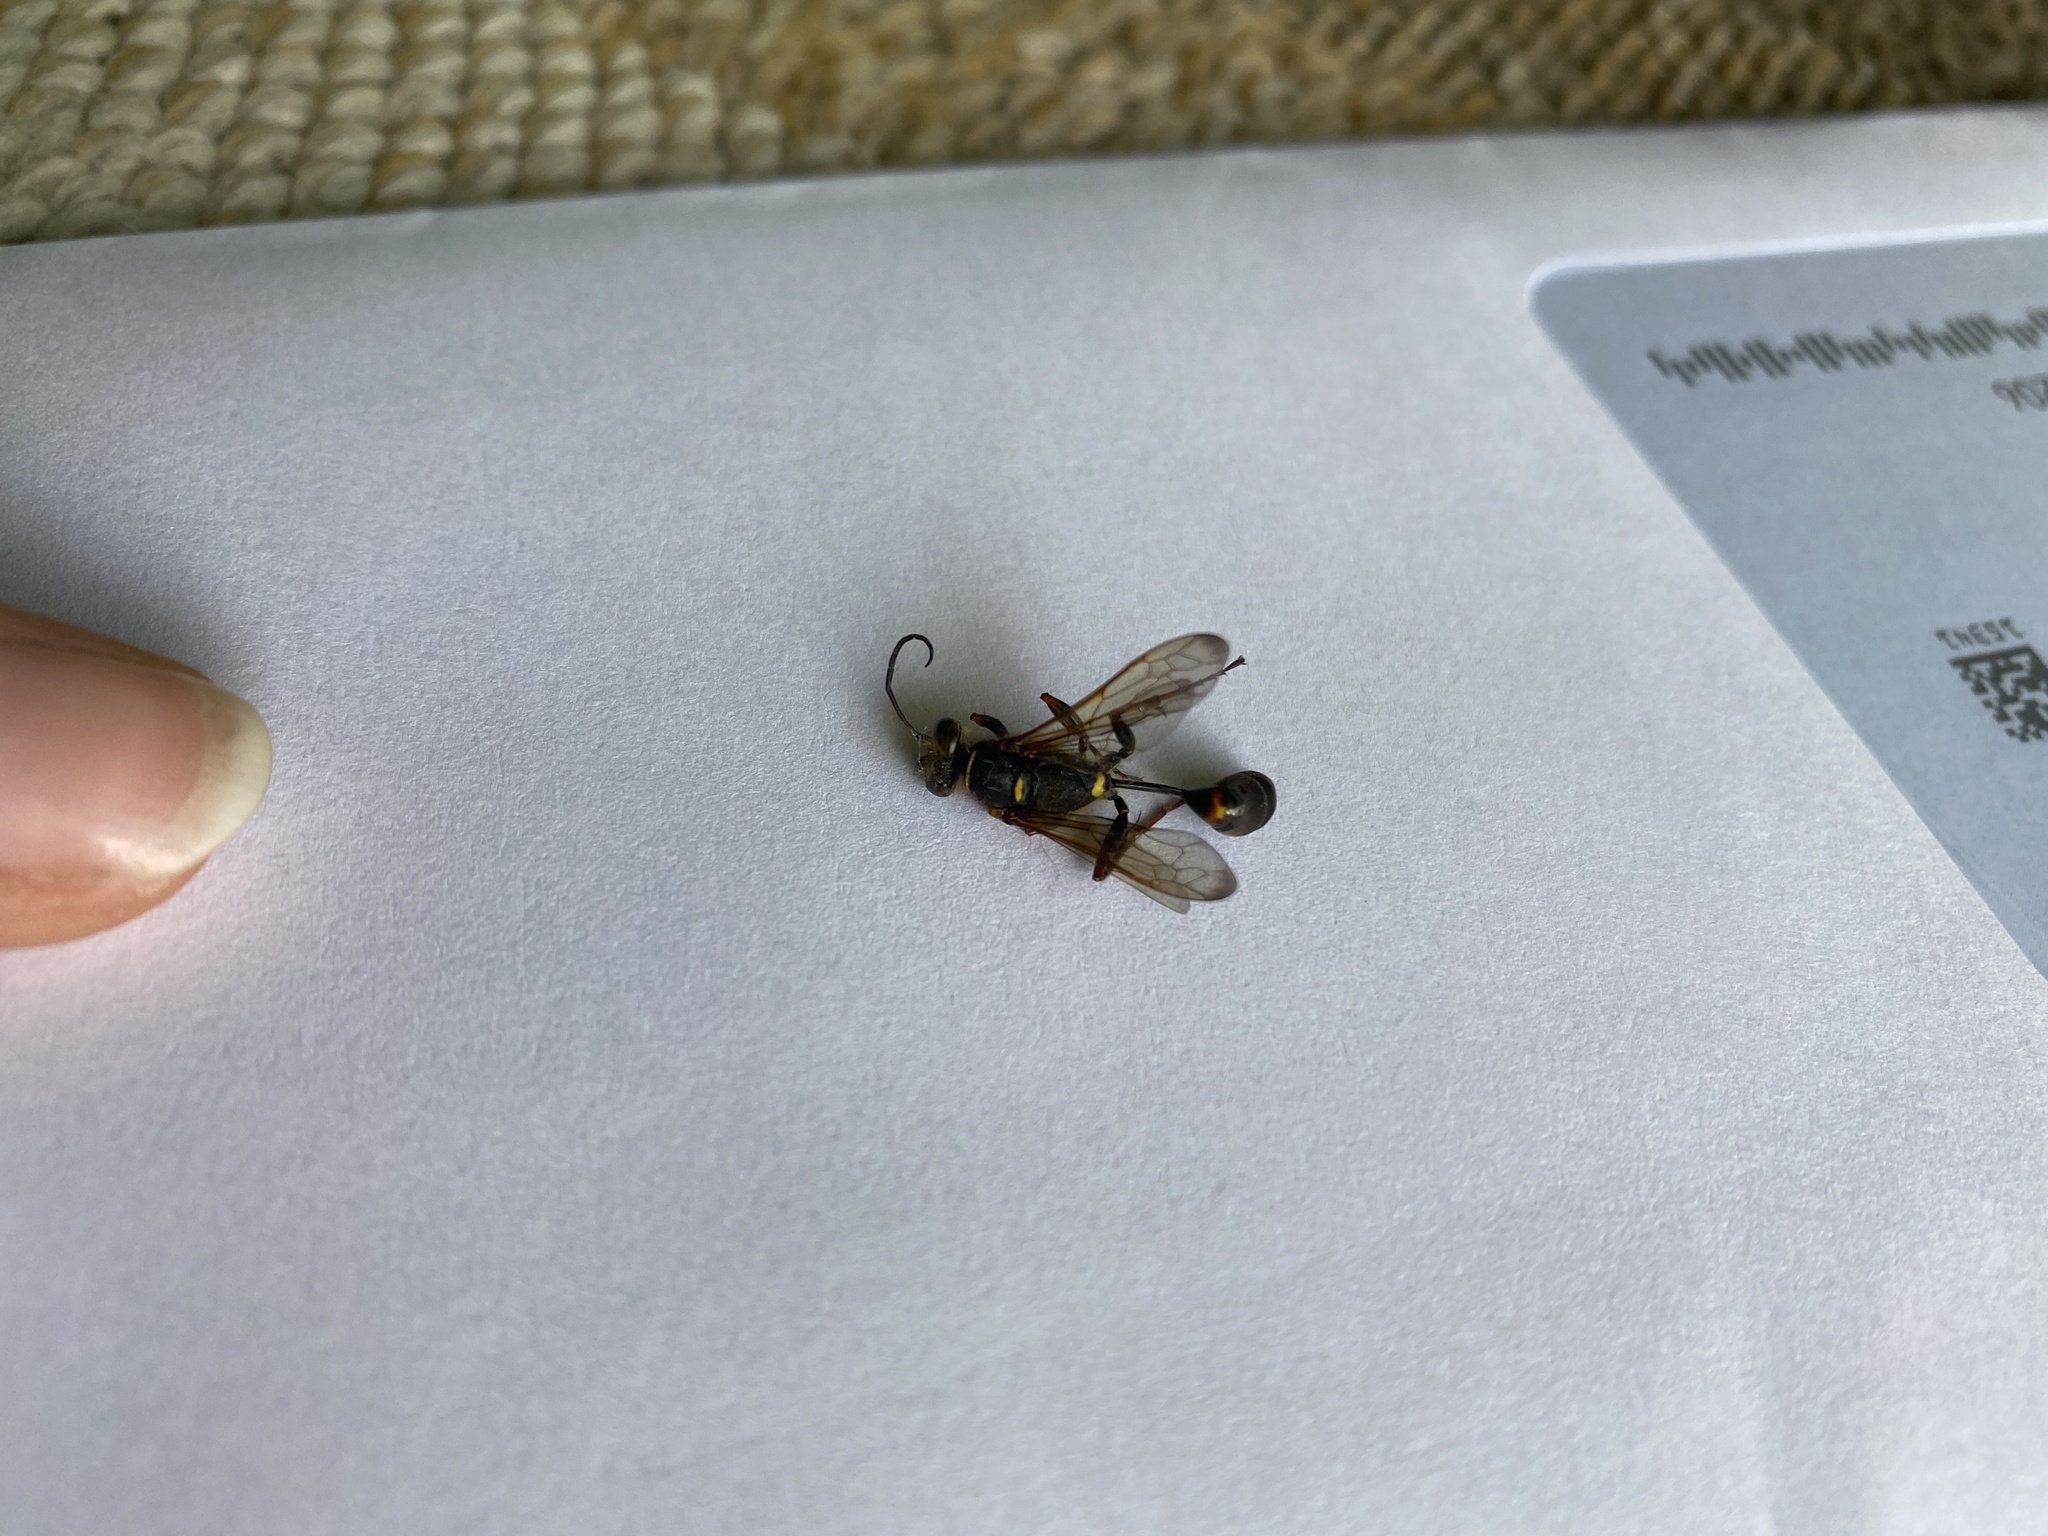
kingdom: Animalia
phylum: Arthropoda
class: Insecta
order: Hymenoptera
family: Sphecidae
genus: Sceliphron
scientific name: Sceliphron curvatum
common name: Pèlopèe
